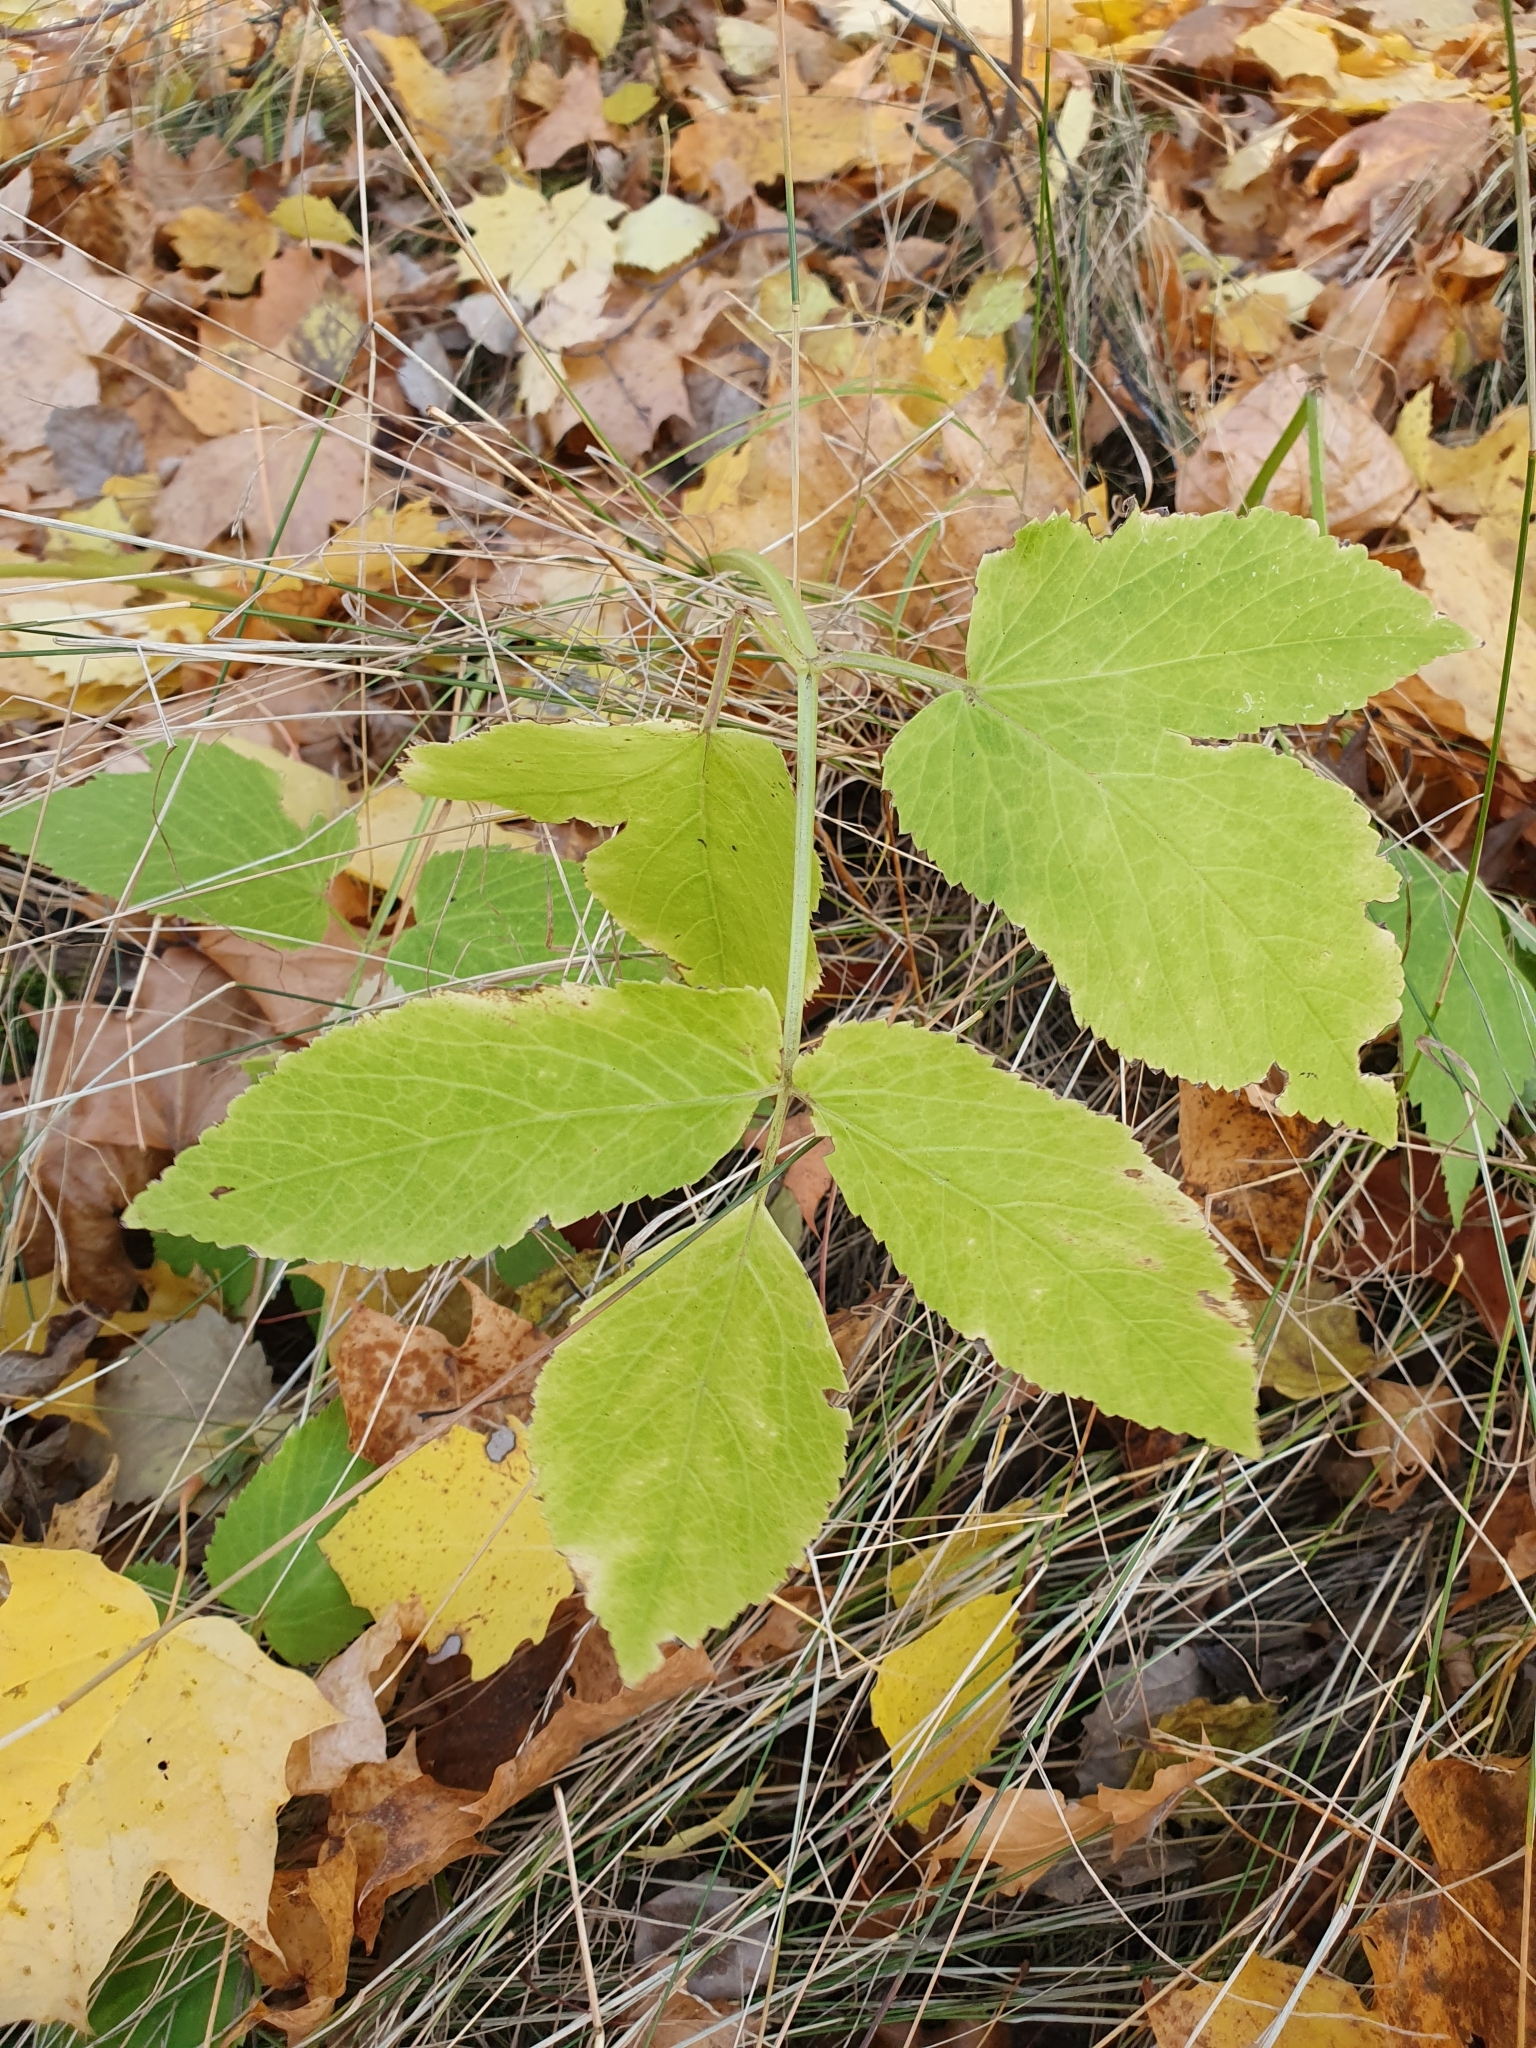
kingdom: Plantae
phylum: Tracheophyta
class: Magnoliopsida
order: Apiales
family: Apiaceae
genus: Aegopodium
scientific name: Aegopodium podagraria
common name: Ground-elder
